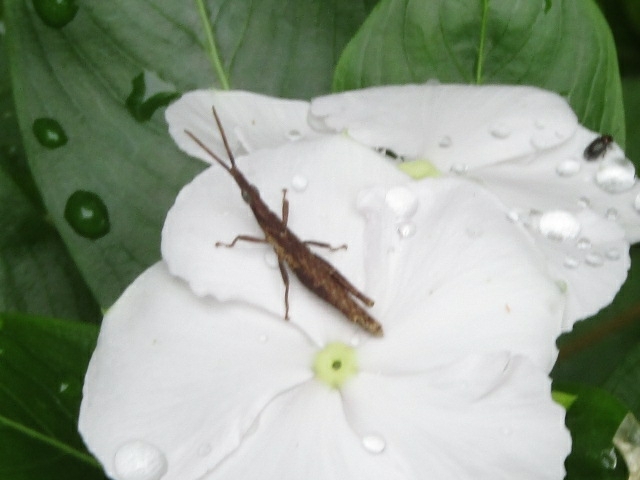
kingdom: Animalia
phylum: Arthropoda
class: Insecta
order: Orthoptera
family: Pyrgomorphidae
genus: Algete
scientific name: Algete brunneri
